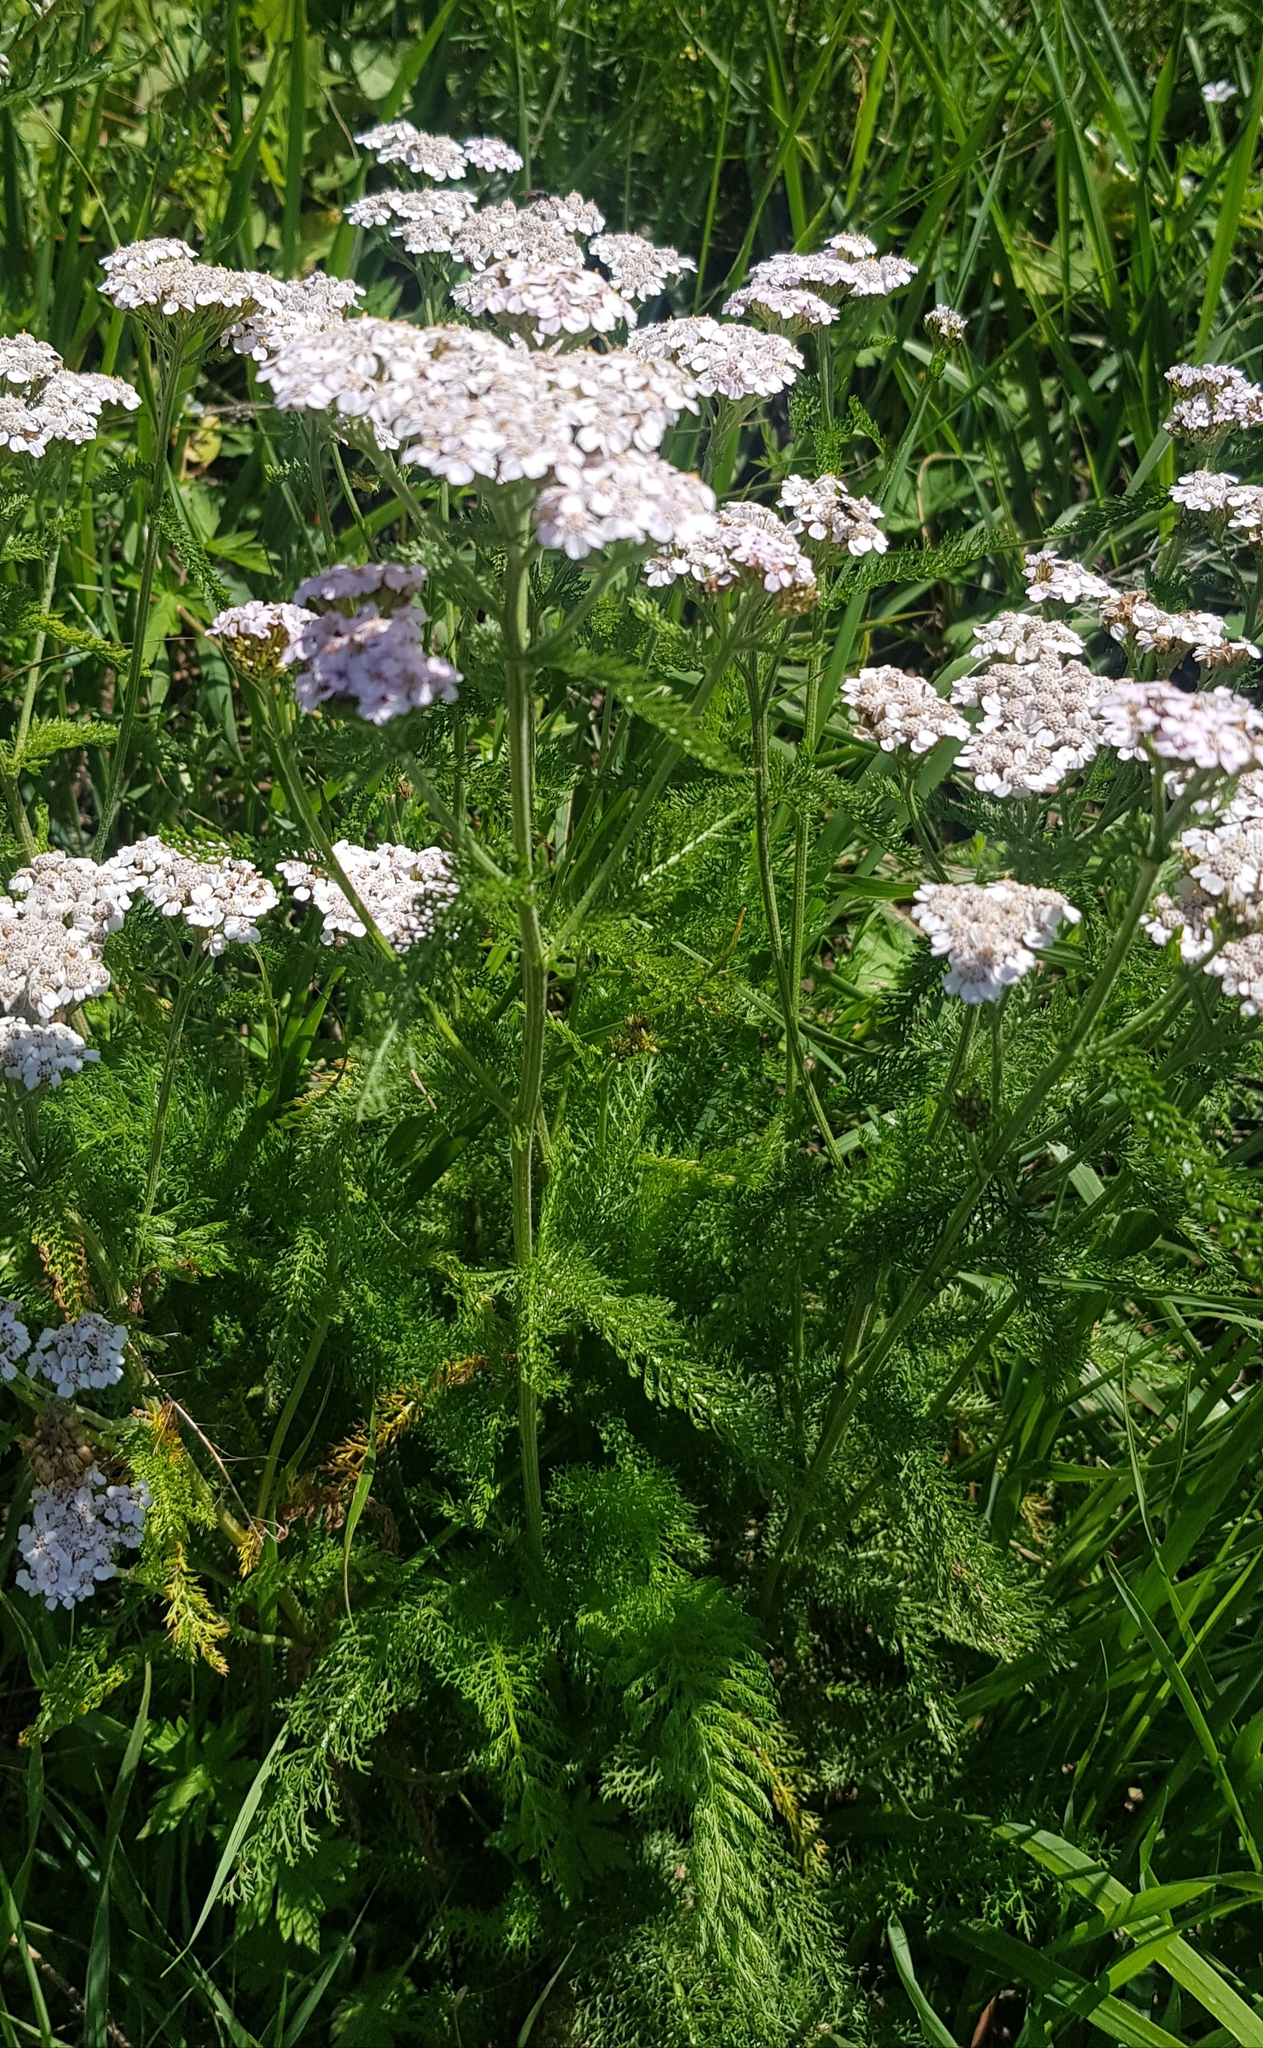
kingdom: Plantae
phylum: Tracheophyta
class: Magnoliopsida
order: Asterales
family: Asteraceae
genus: Achillea
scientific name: Achillea millefolium
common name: Yarrow
